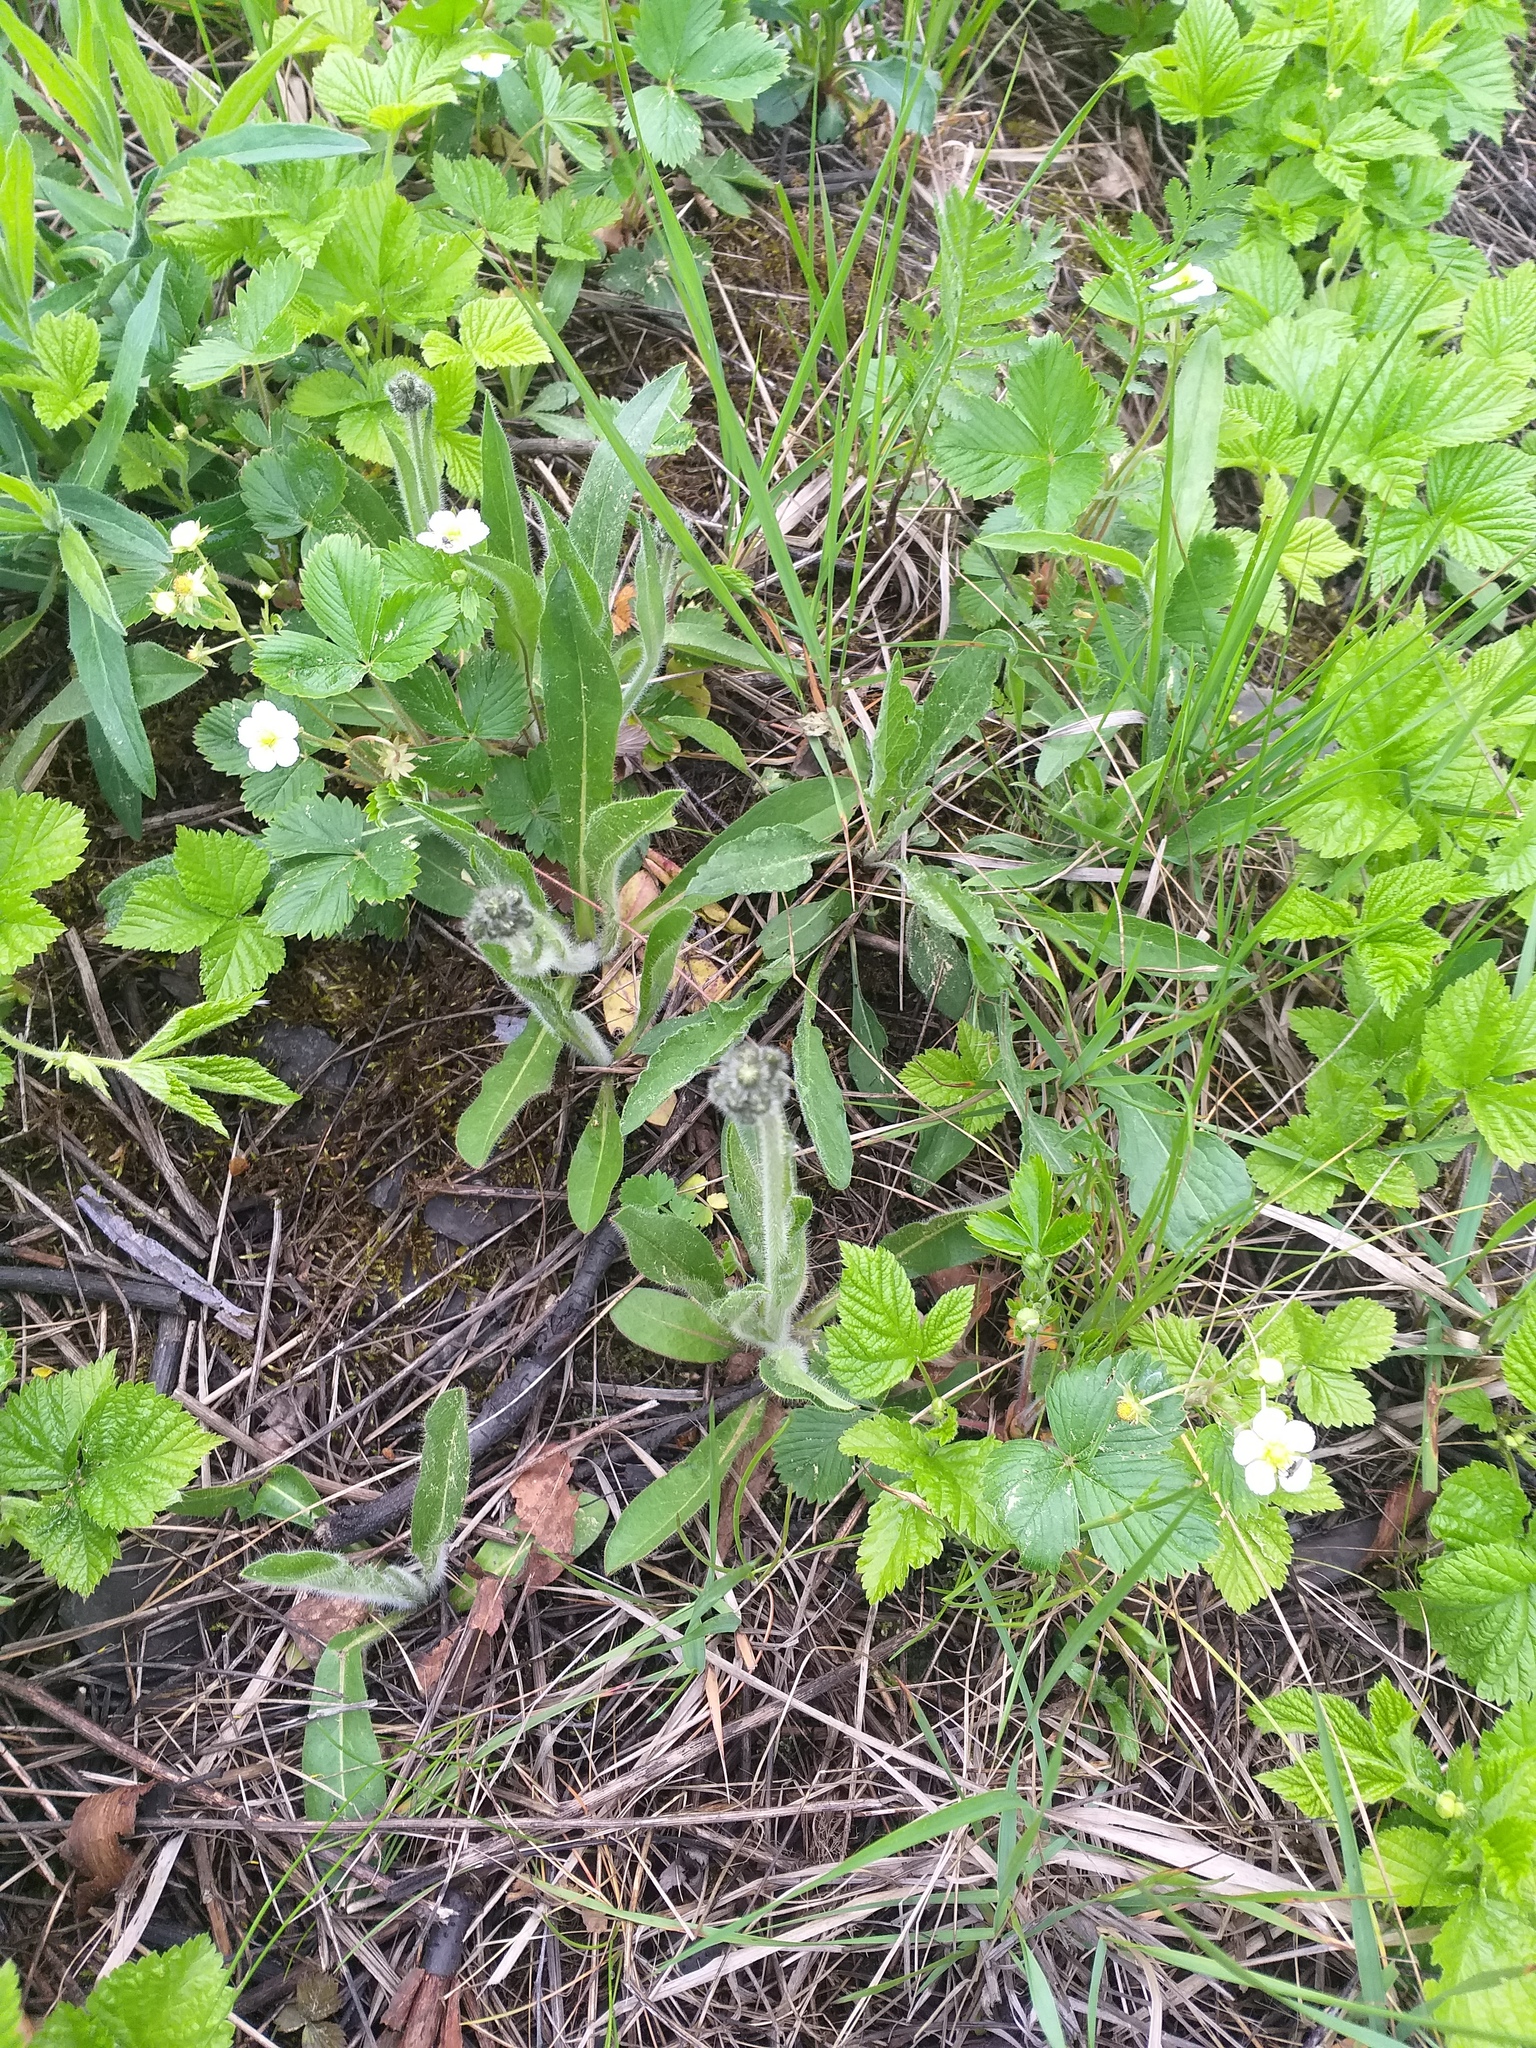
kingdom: Plantae
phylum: Tracheophyta
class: Magnoliopsida
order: Asterales
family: Asteraceae
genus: Pilosella
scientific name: Pilosella
